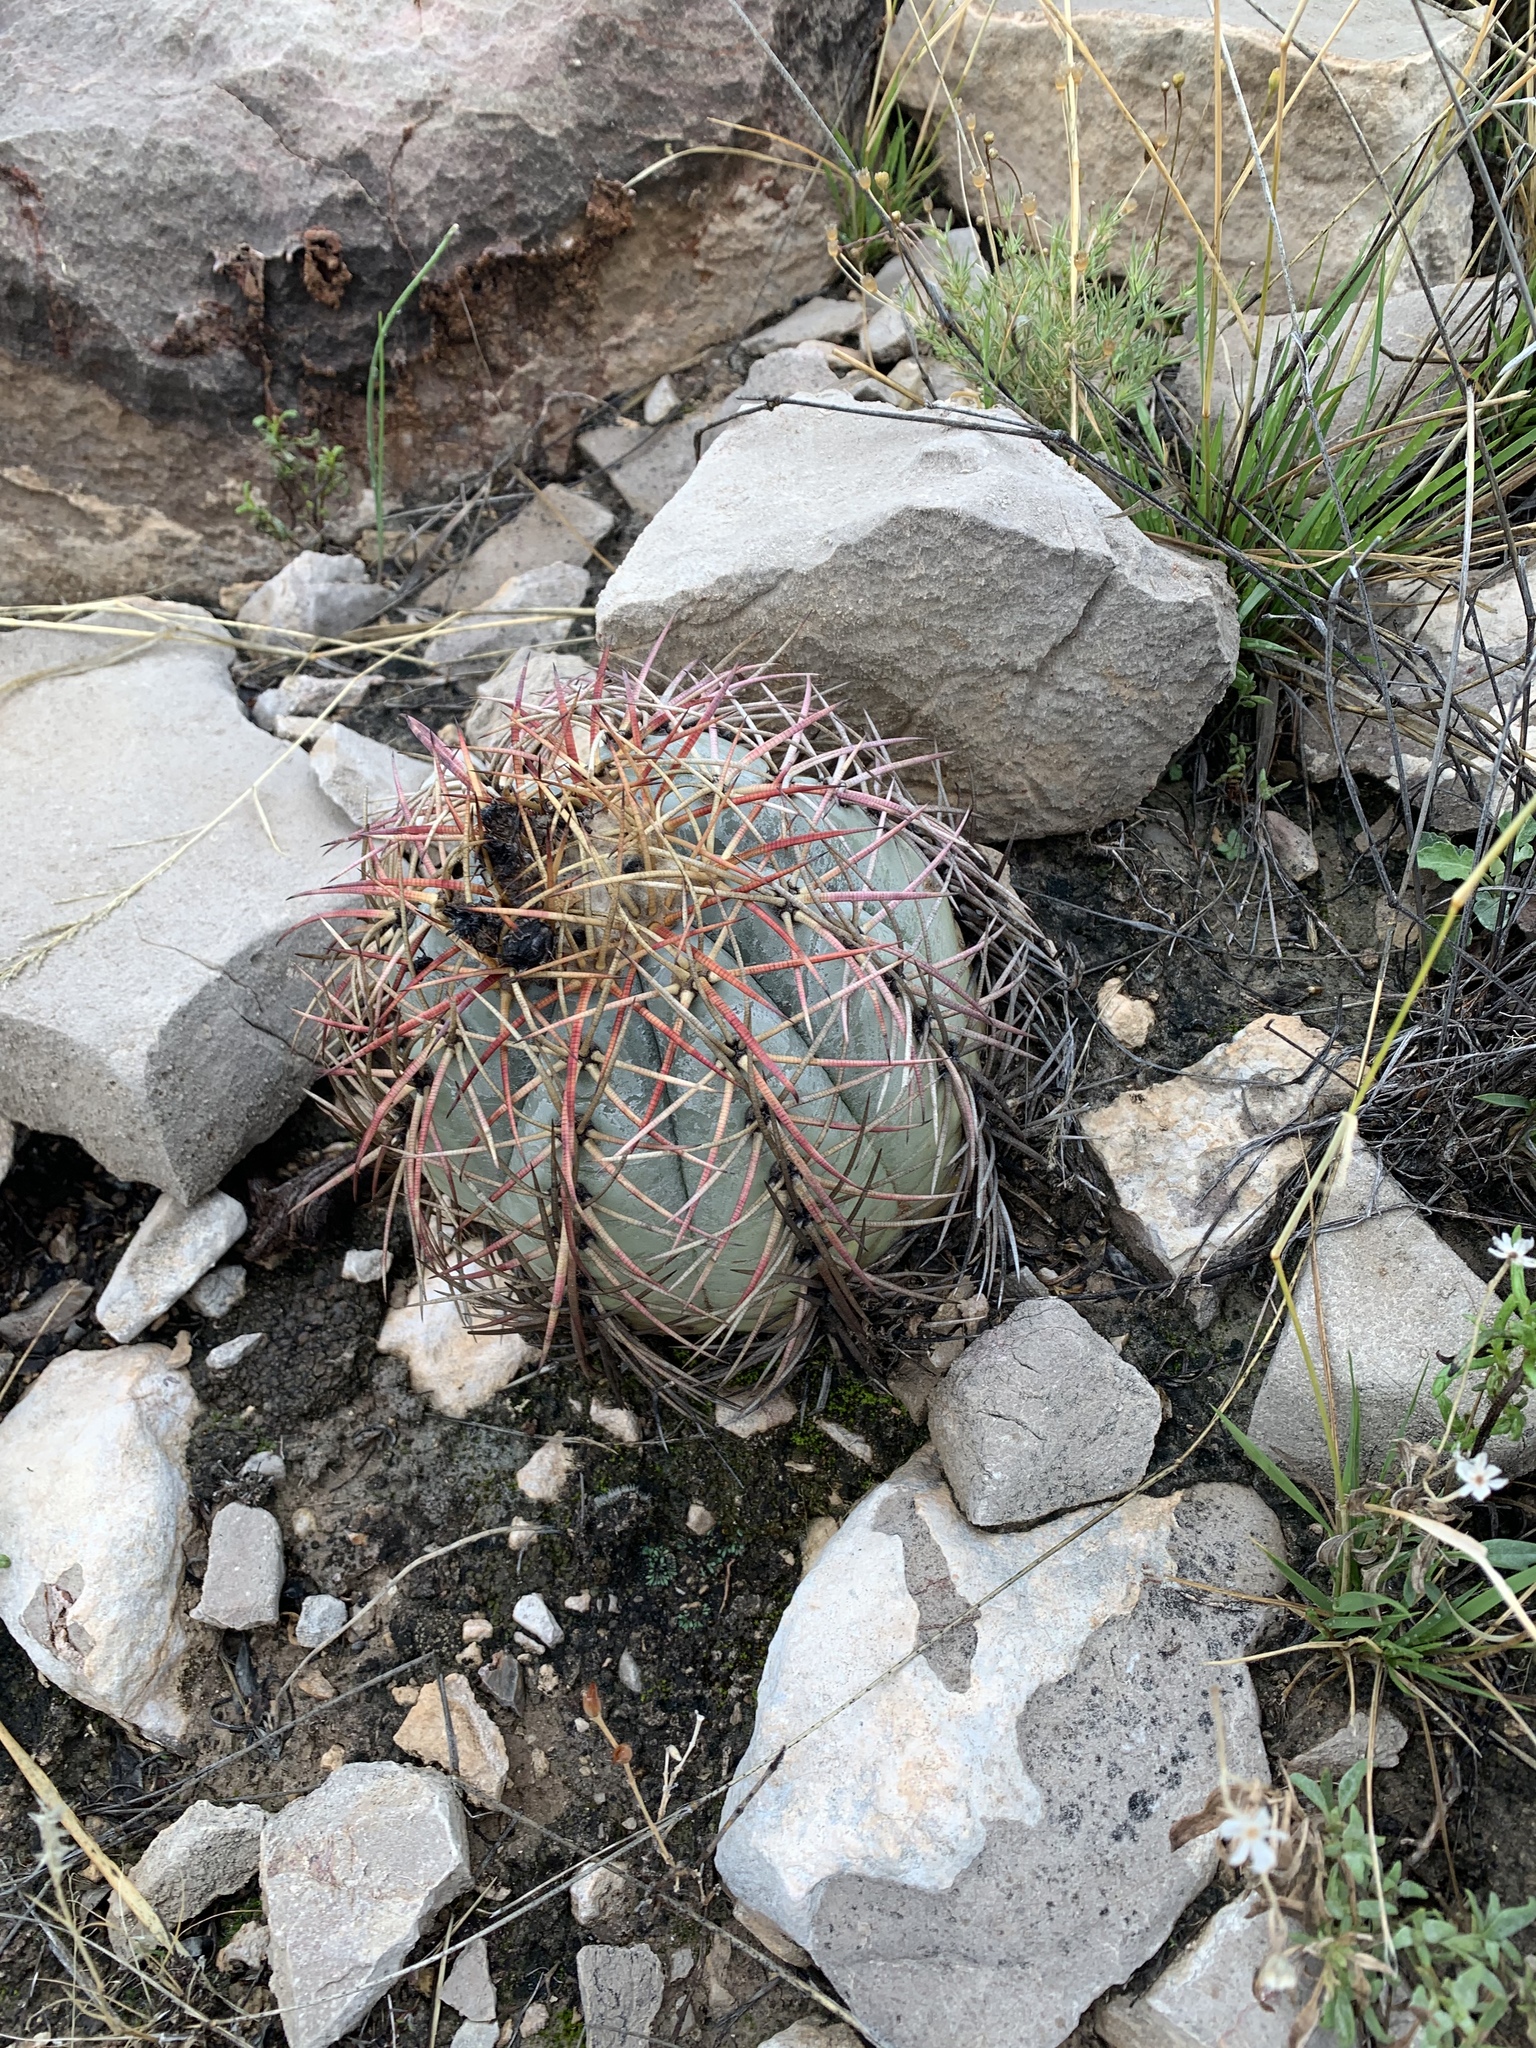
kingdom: Plantae
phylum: Tracheophyta
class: Magnoliopsida
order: Caryophyllales
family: Cactaceae
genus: Echinocactus
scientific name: Echinocactus horizonthalonius
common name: Devilshead
